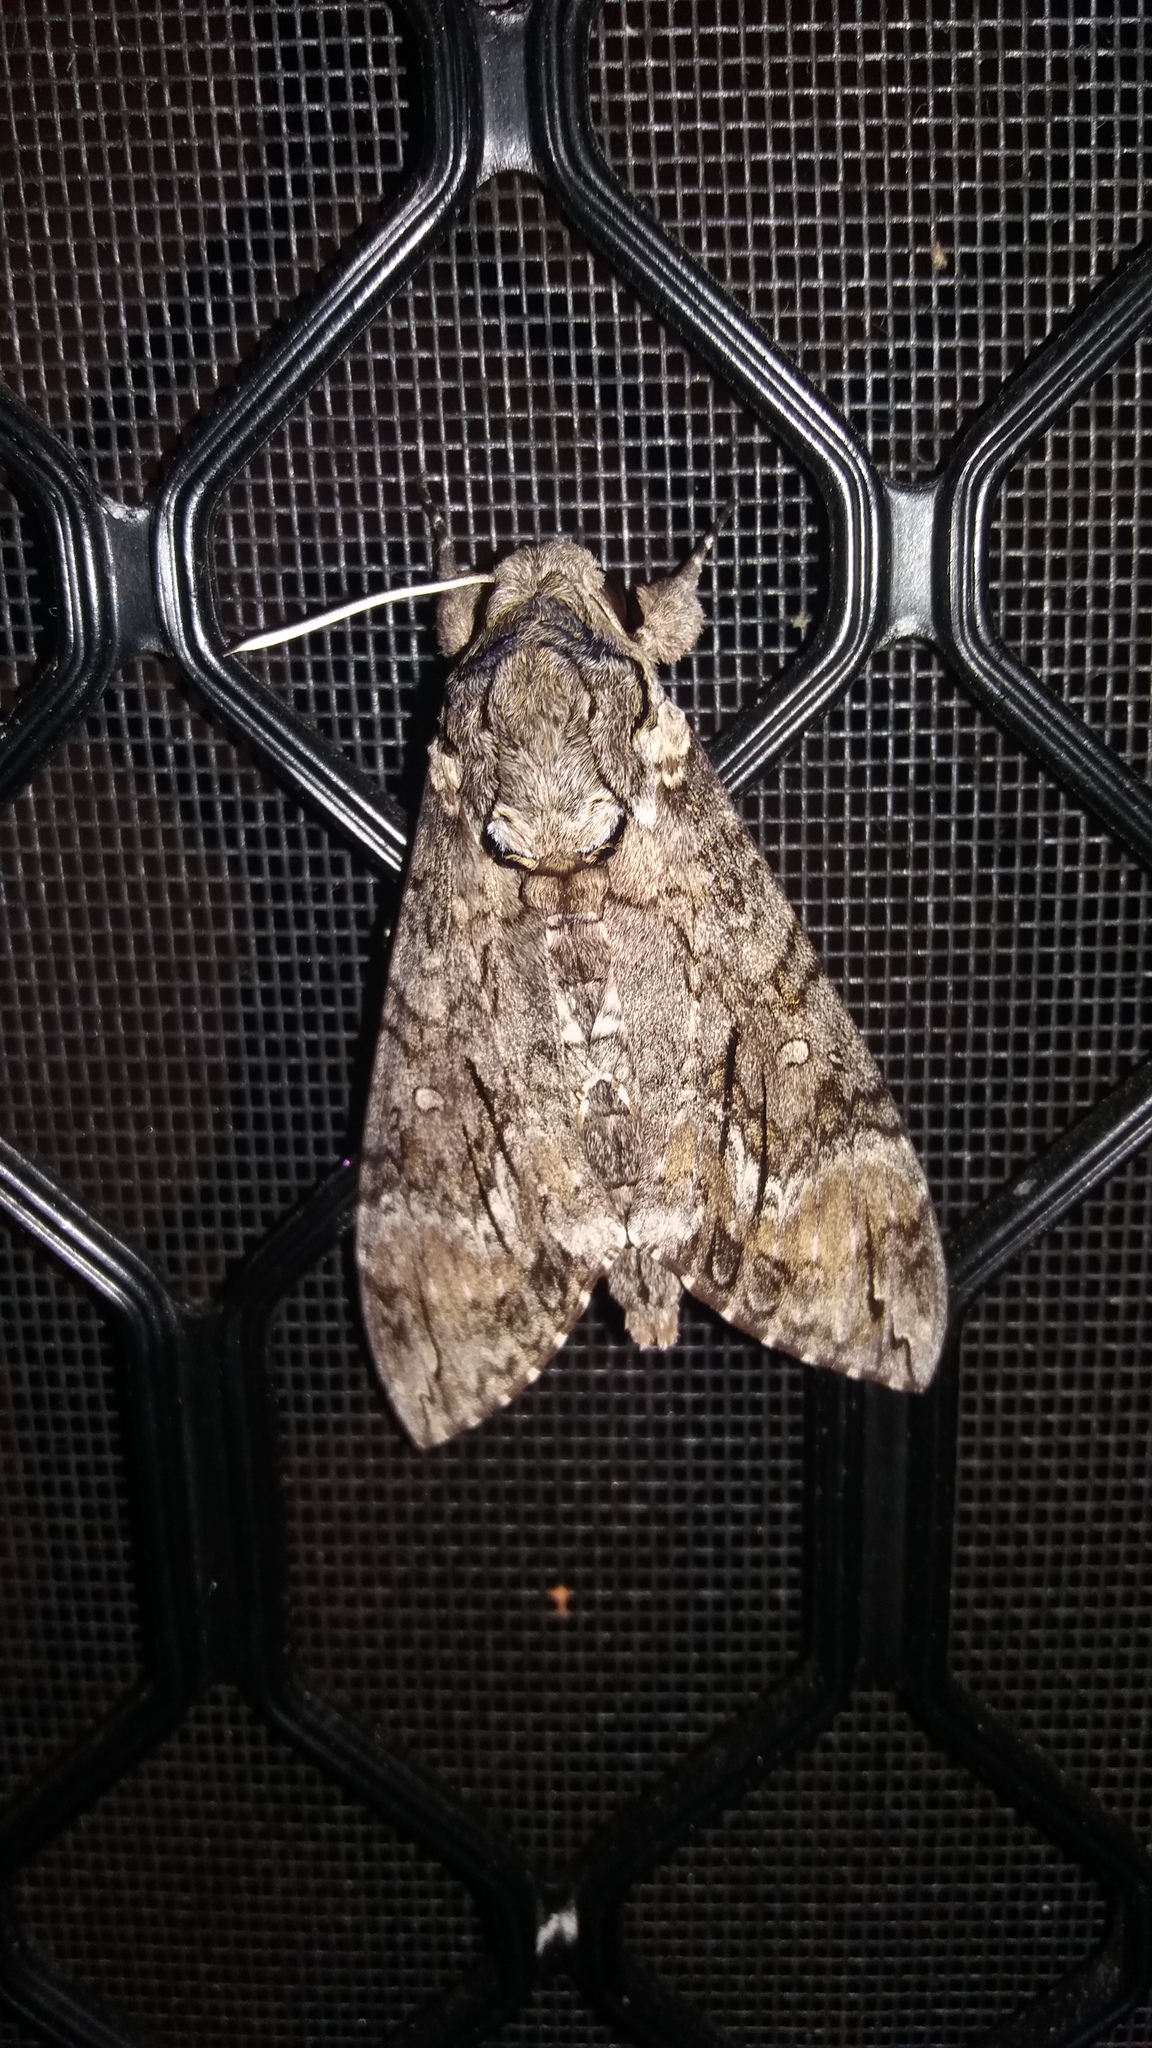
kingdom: Animalia
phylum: Arthropoda
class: Insecta
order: Lepidoptera
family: Sphingidae
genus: Agrius
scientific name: Agrius cingulata
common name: Pink-spotted hawkmoth
